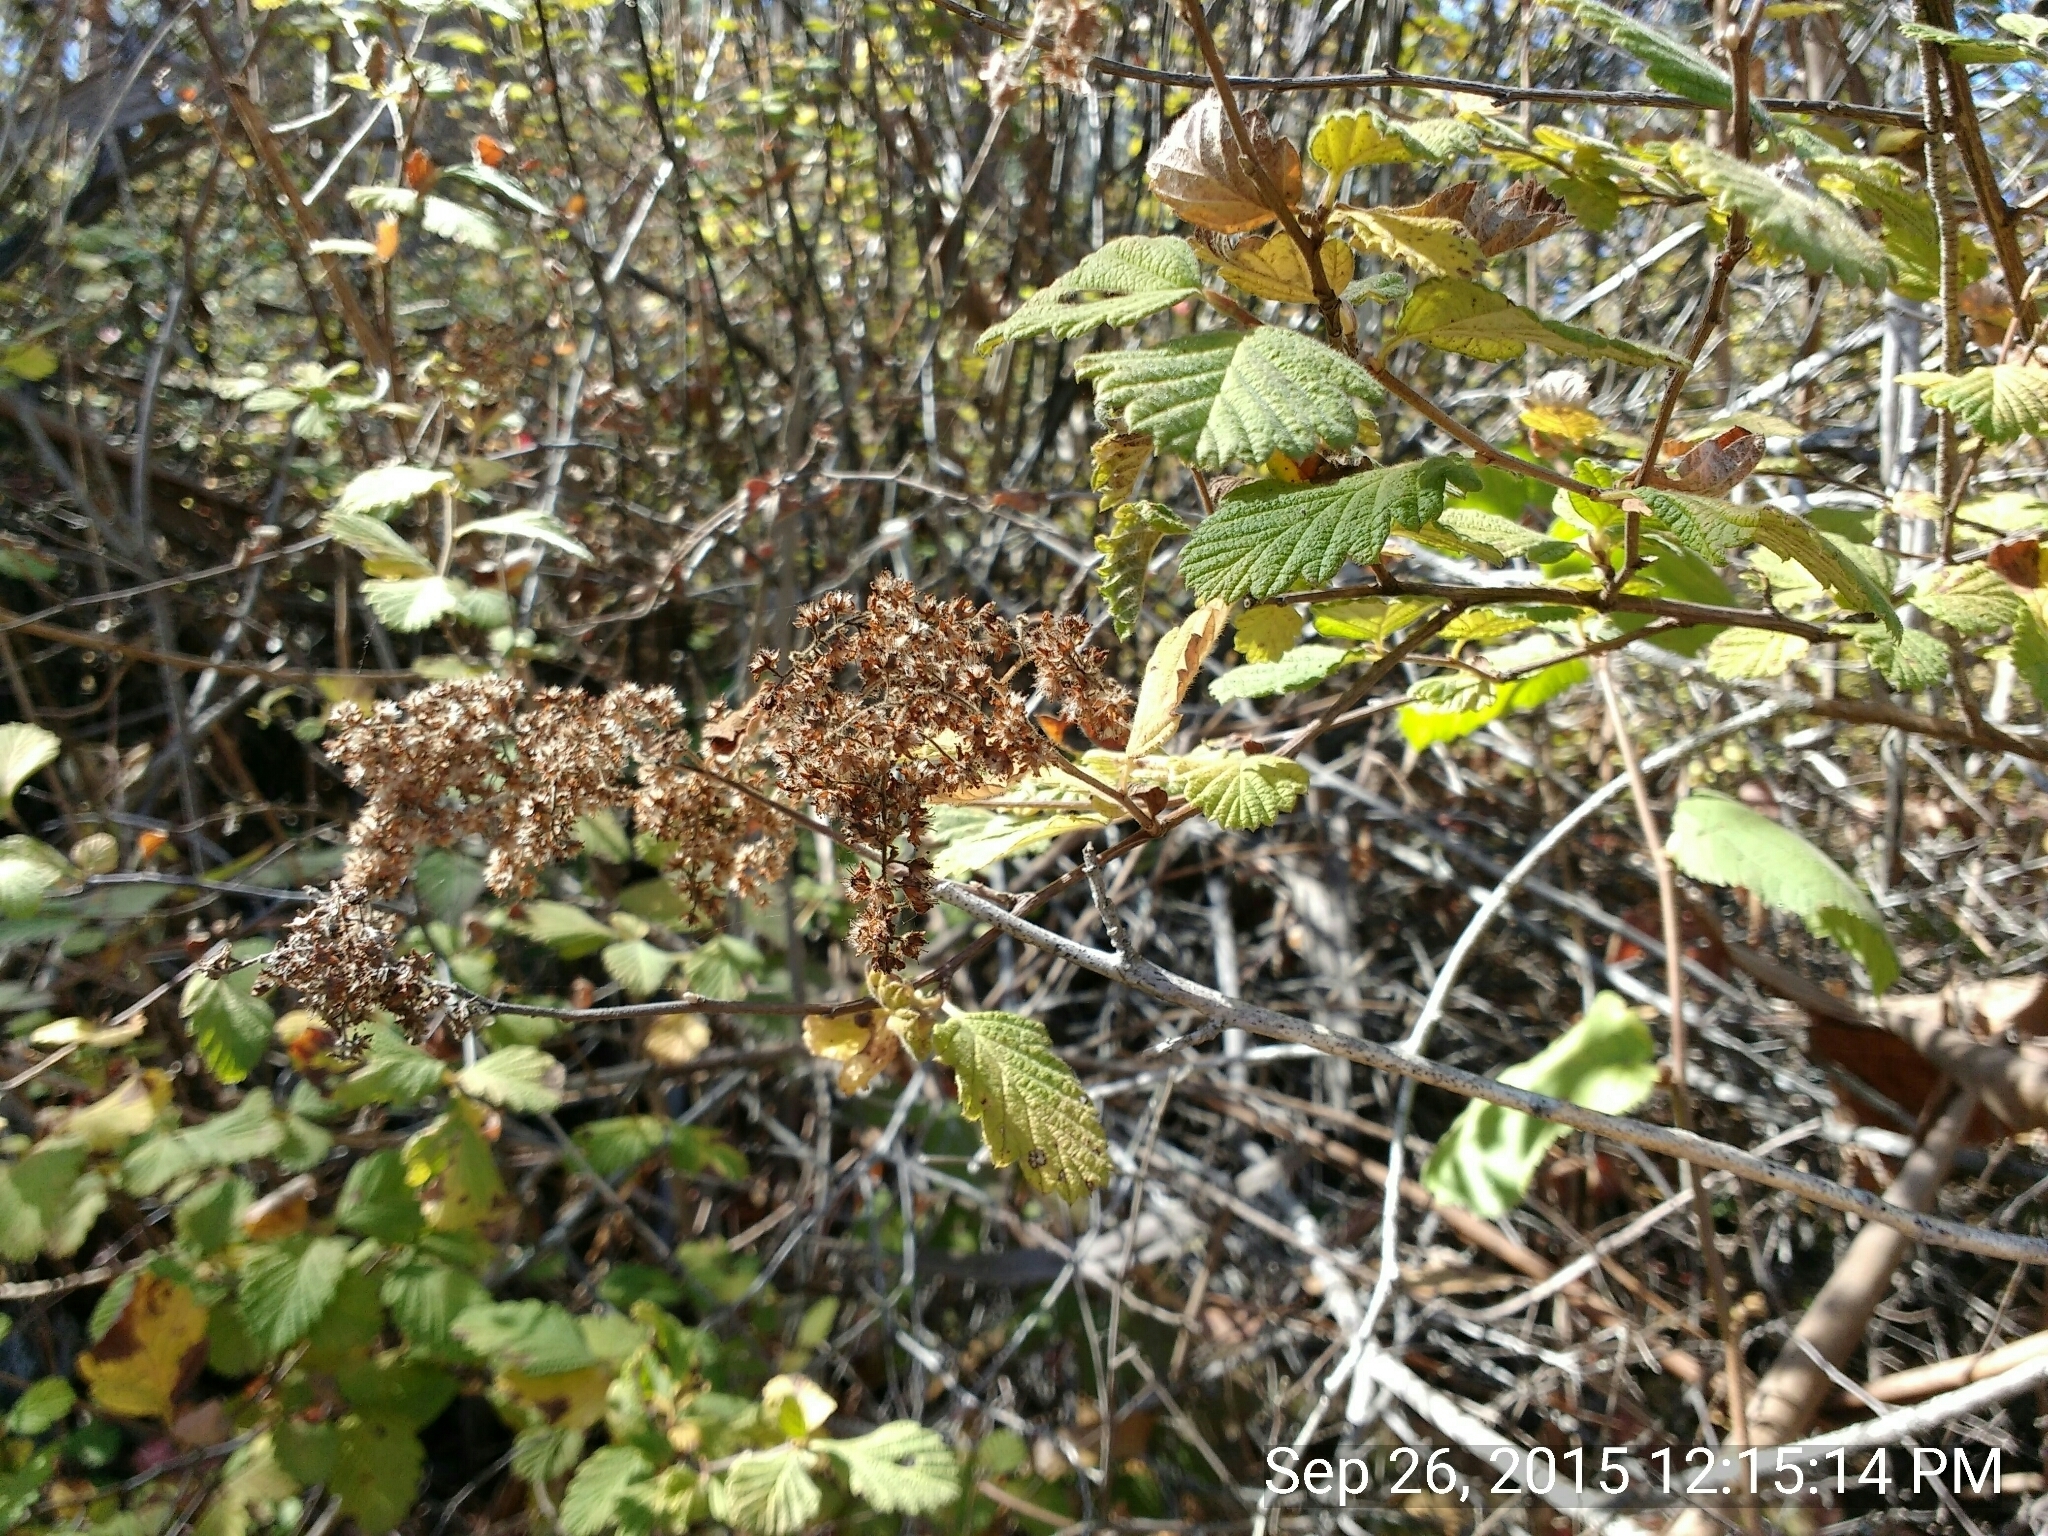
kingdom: Plantae
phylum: Tracheophyta
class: Magnoliopsida
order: Rosales
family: Rosaceae
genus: Holodiscus
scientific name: Holodiscus discolor
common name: Oceanspray
